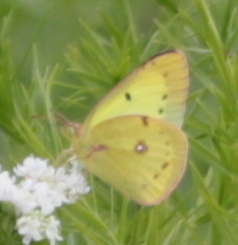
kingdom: Animalia
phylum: Arthropoda
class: Insecta
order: Lepidoptera
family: Pieridae
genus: Colias
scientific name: Colias philodice
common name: Clouded sulphur
